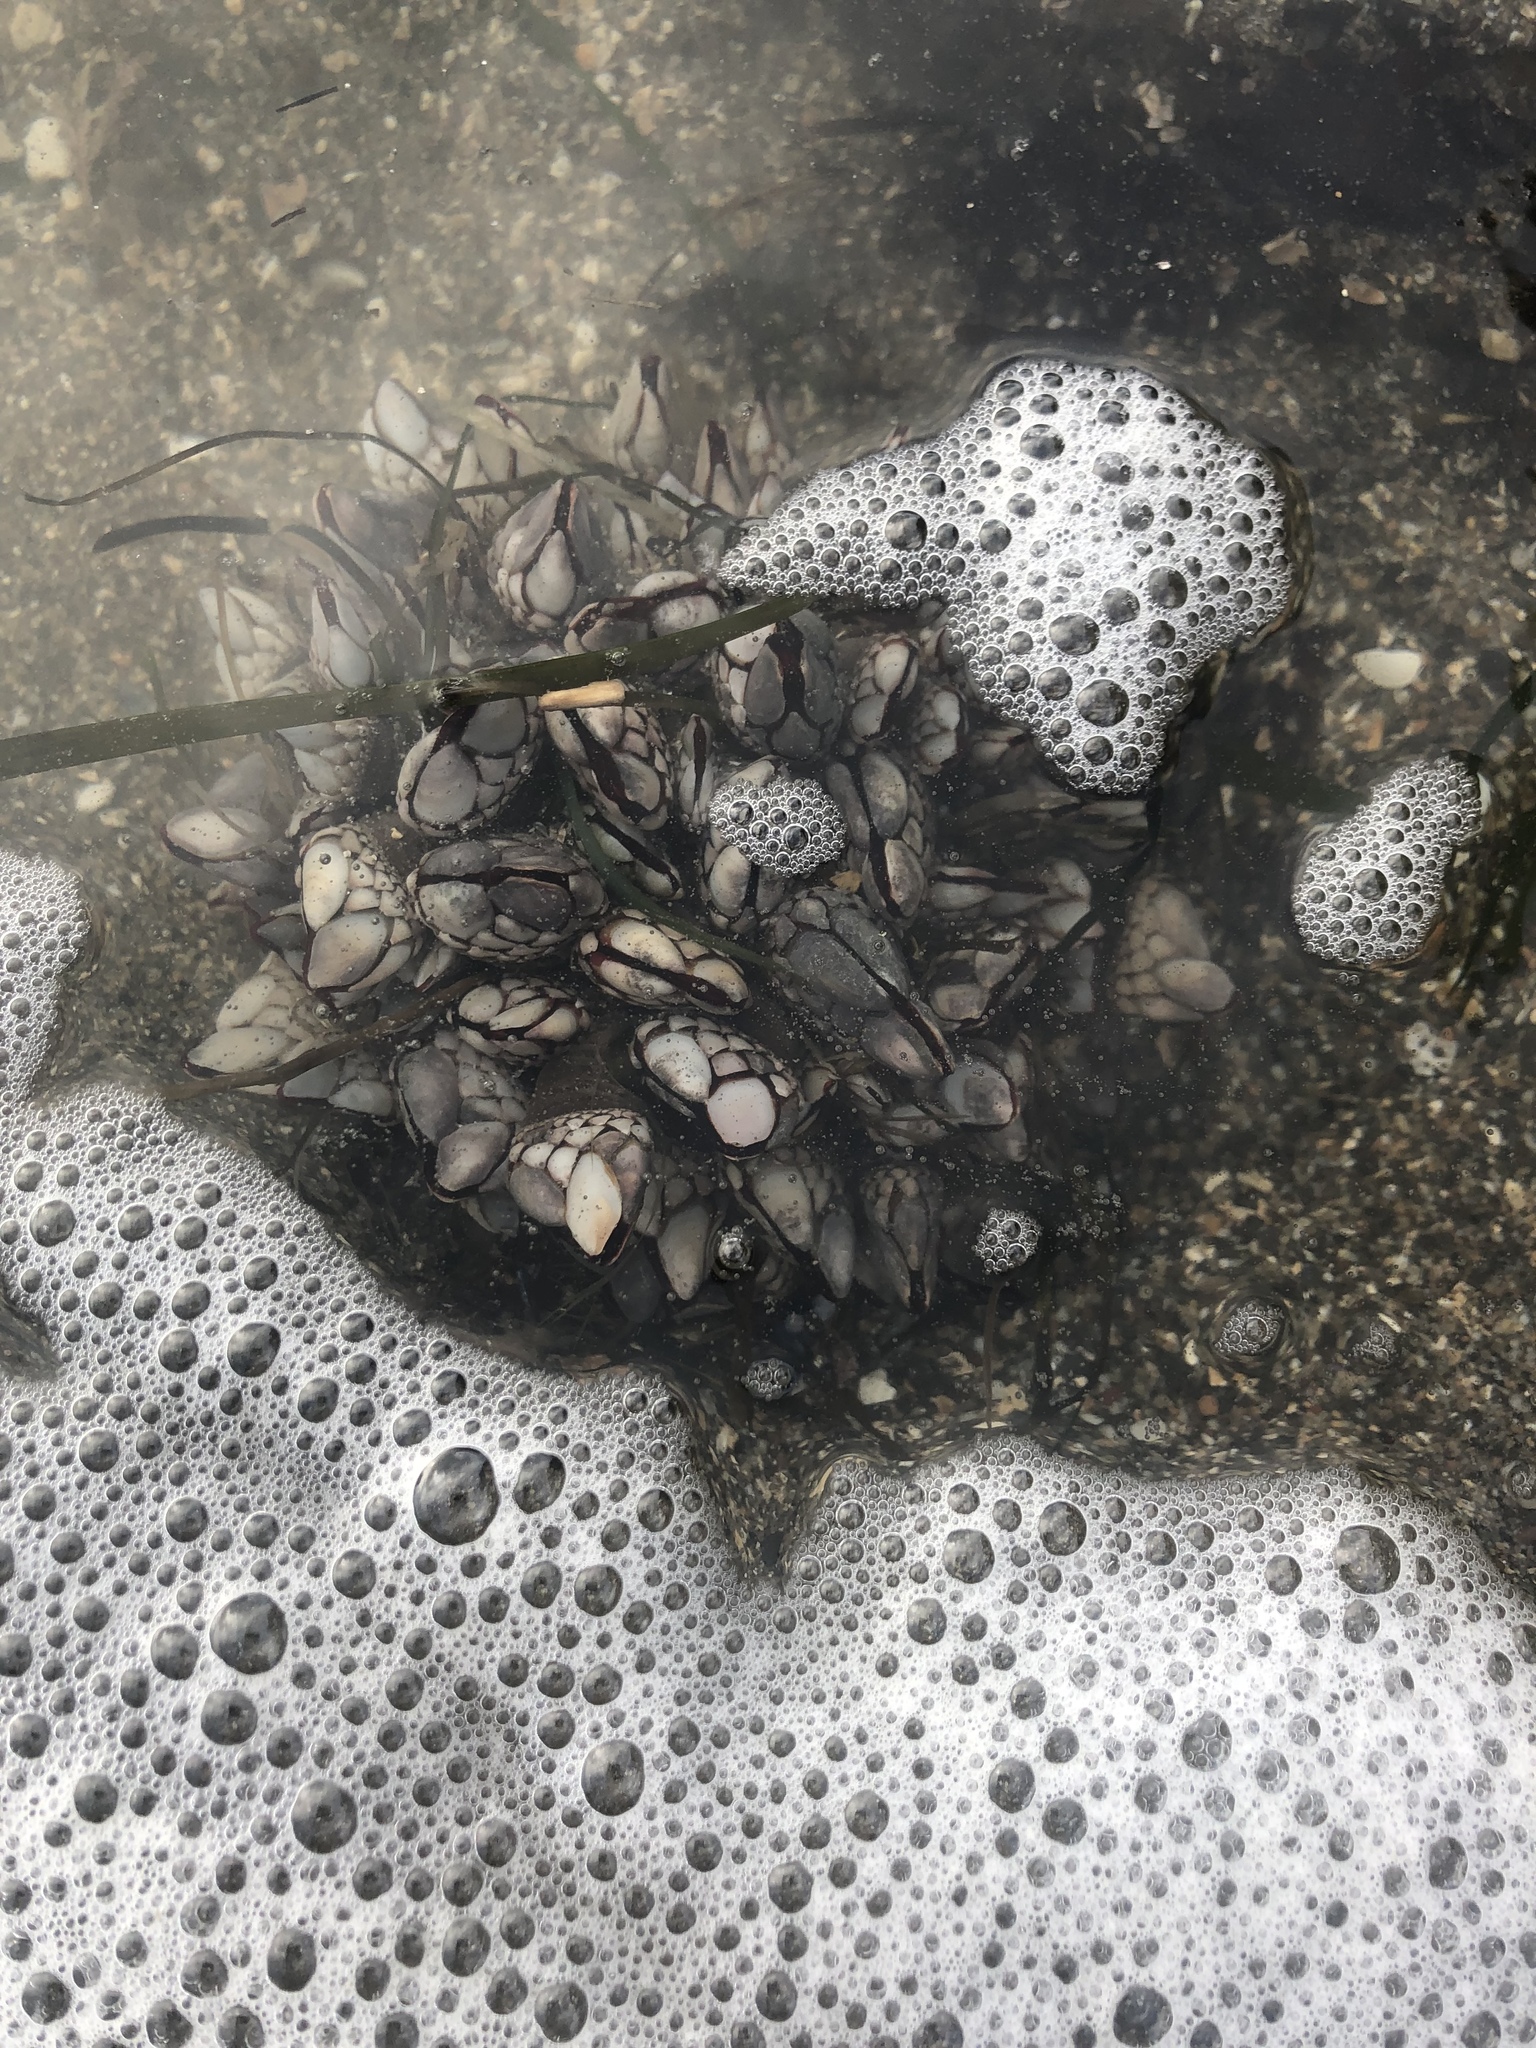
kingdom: Animalia
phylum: Arthropoda
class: Maxillopoda
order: Pedunculata
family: Pollicipedidae
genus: Pollicipes
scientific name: Pollicipes polymerus
